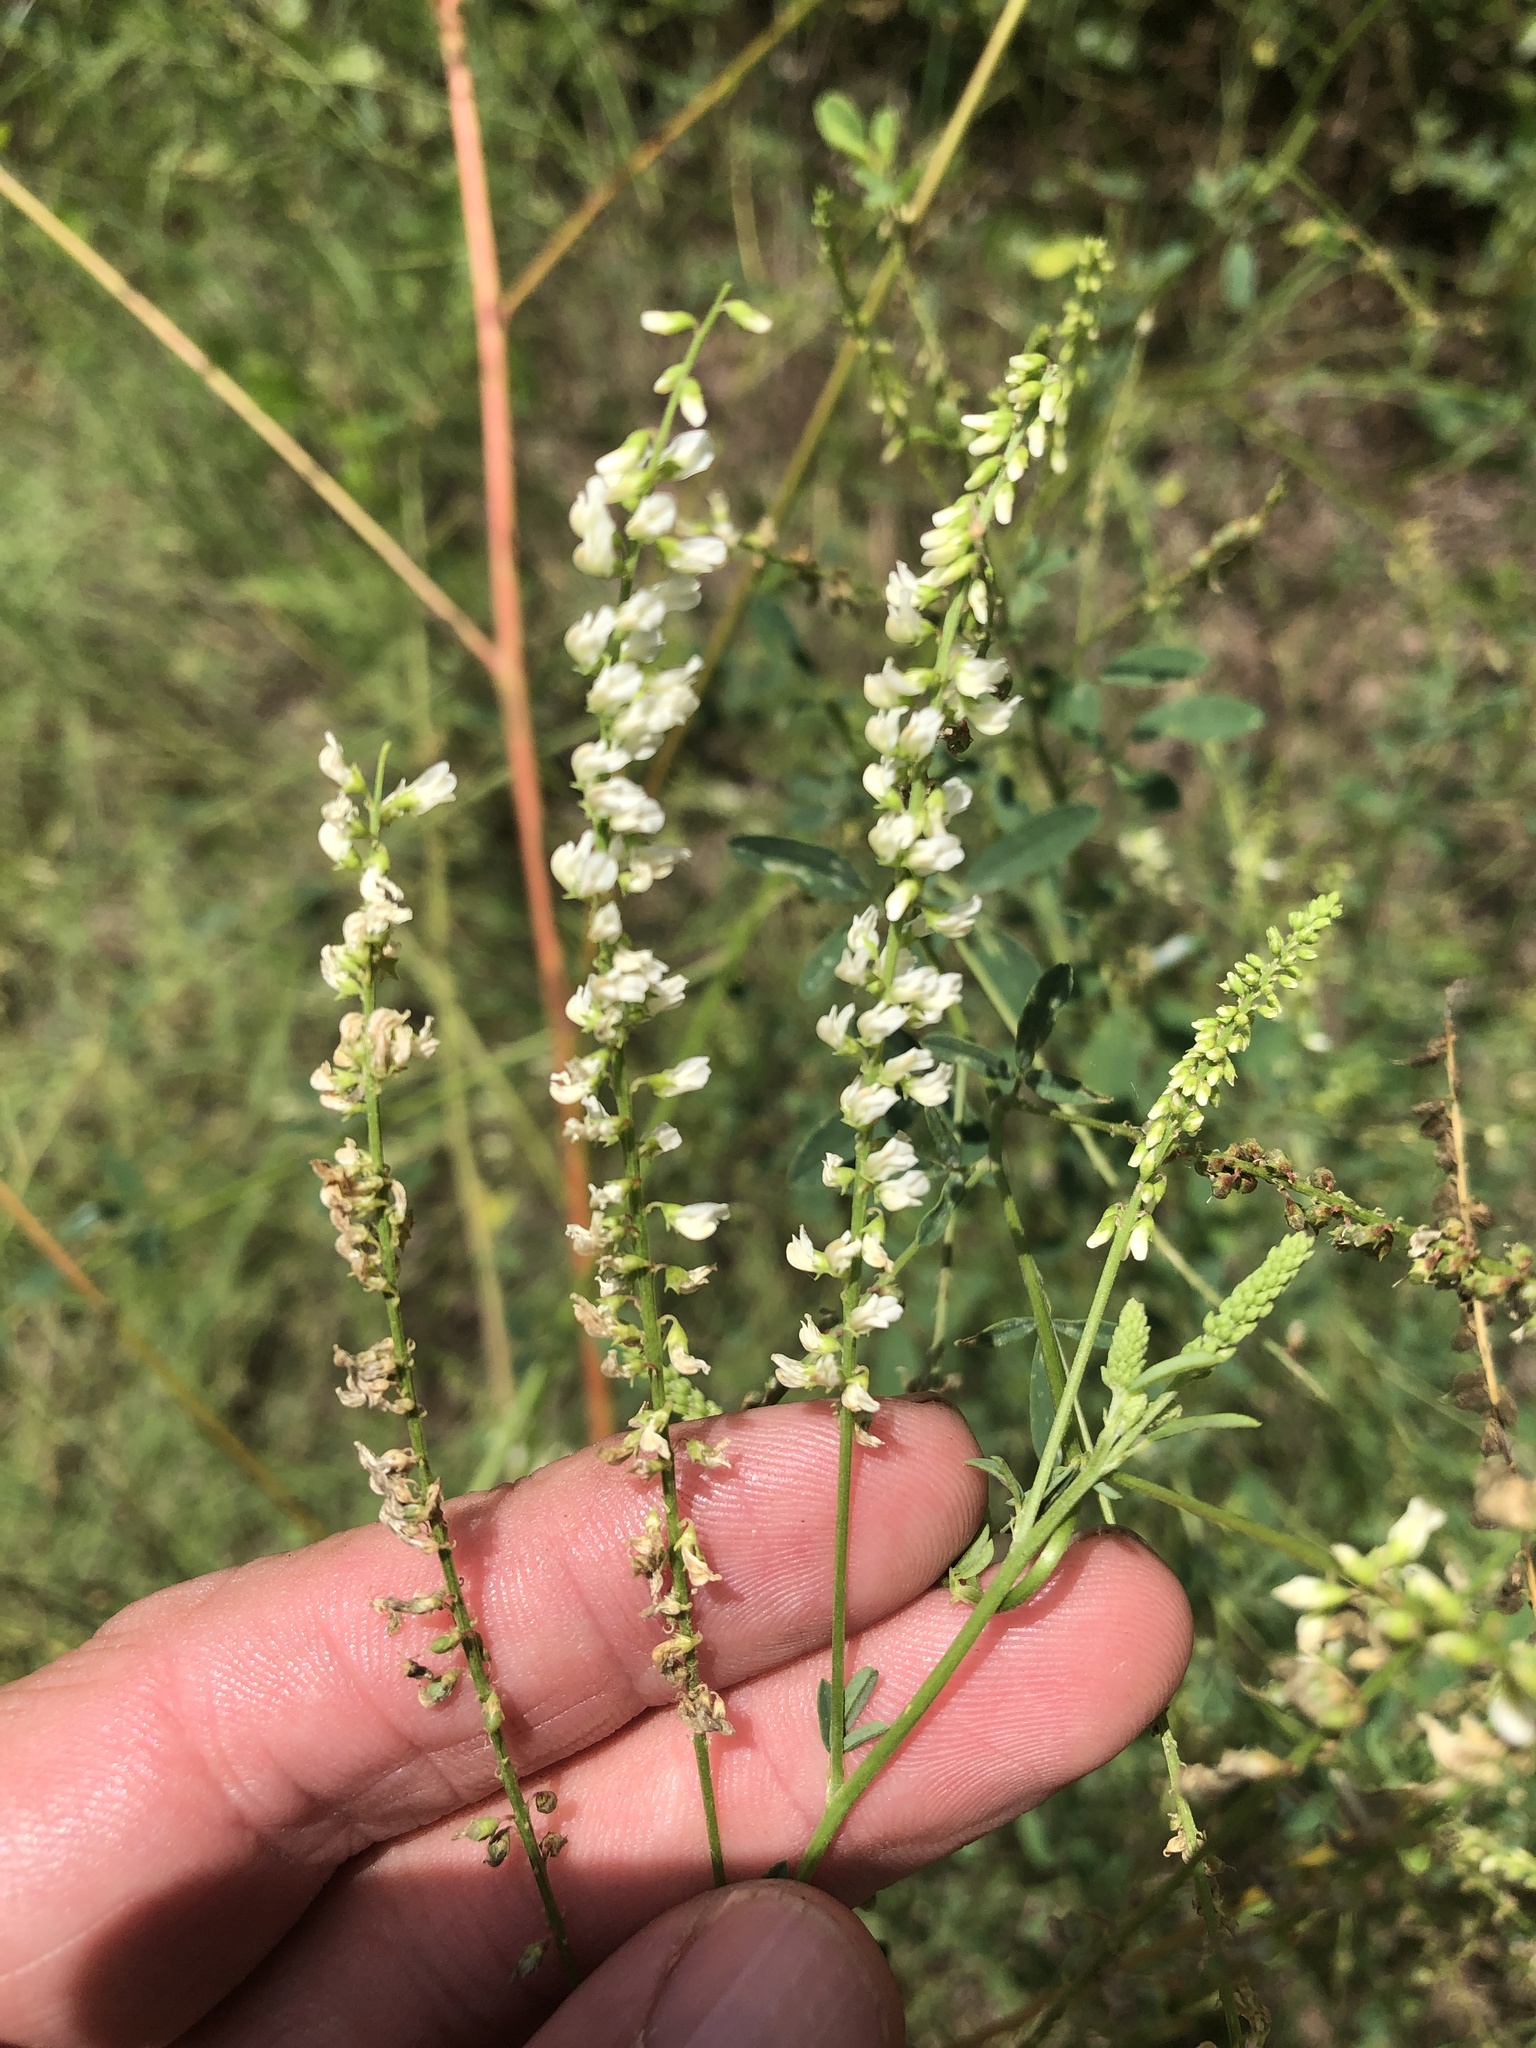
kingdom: Plantae
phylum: Tracheophyta
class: Magnoliopsida
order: Fabales
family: Fabaceae
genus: Melilotus
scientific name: Melilotus albus
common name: White melilot
